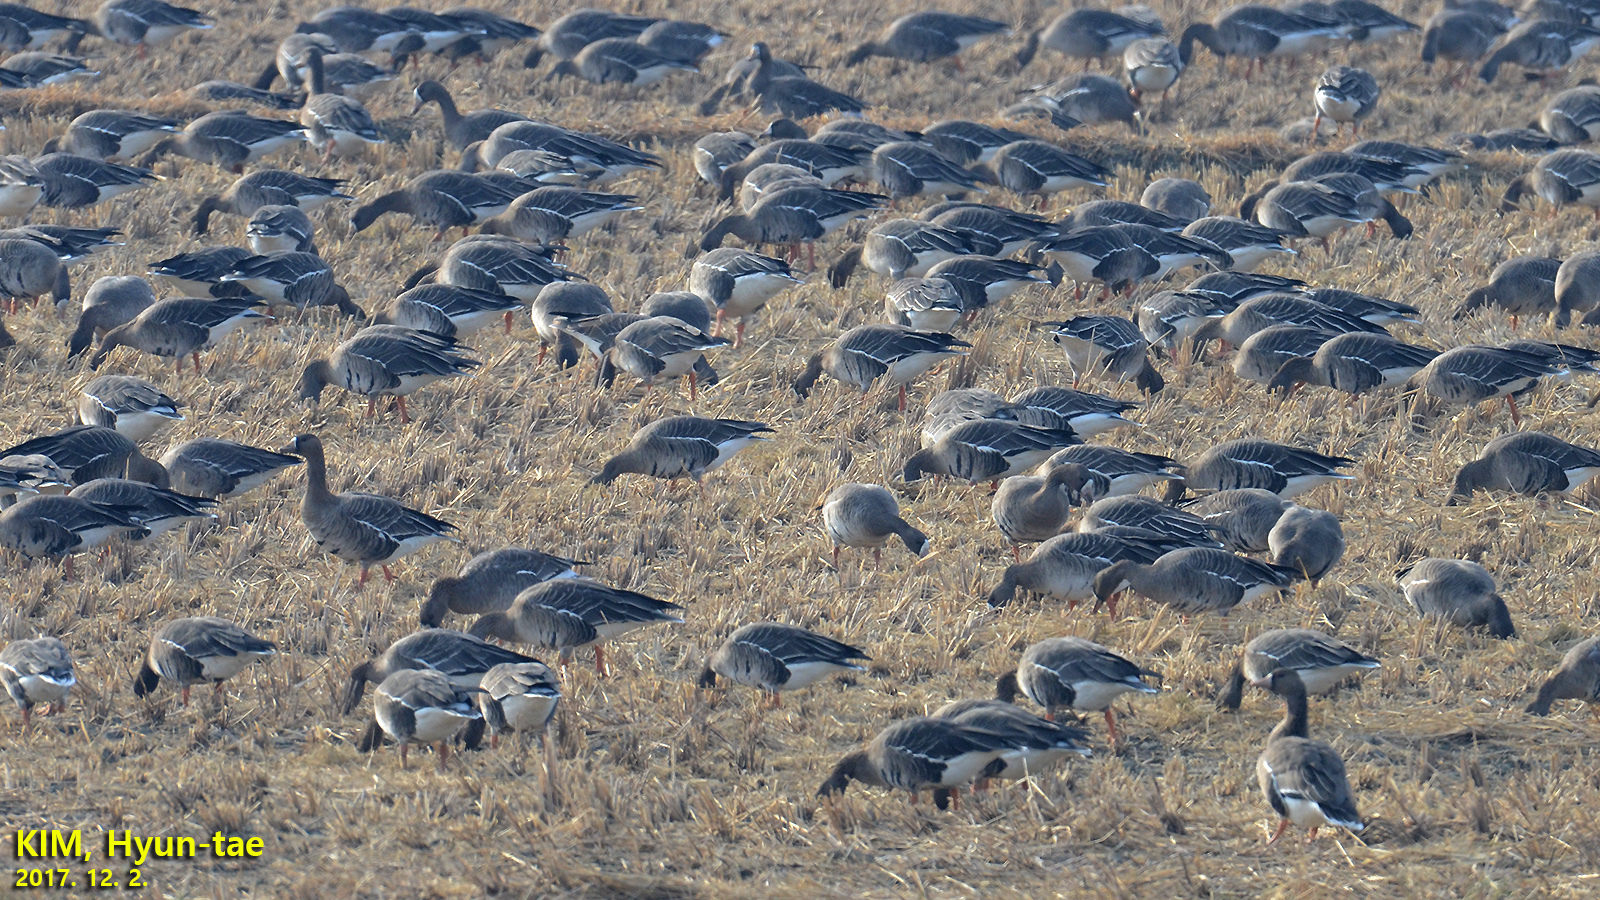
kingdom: Animalia
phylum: Chordata
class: Aves
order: Anseriformes
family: Anatidae
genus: Anser
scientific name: Anser albifrons
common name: Greater white-fronted goose
